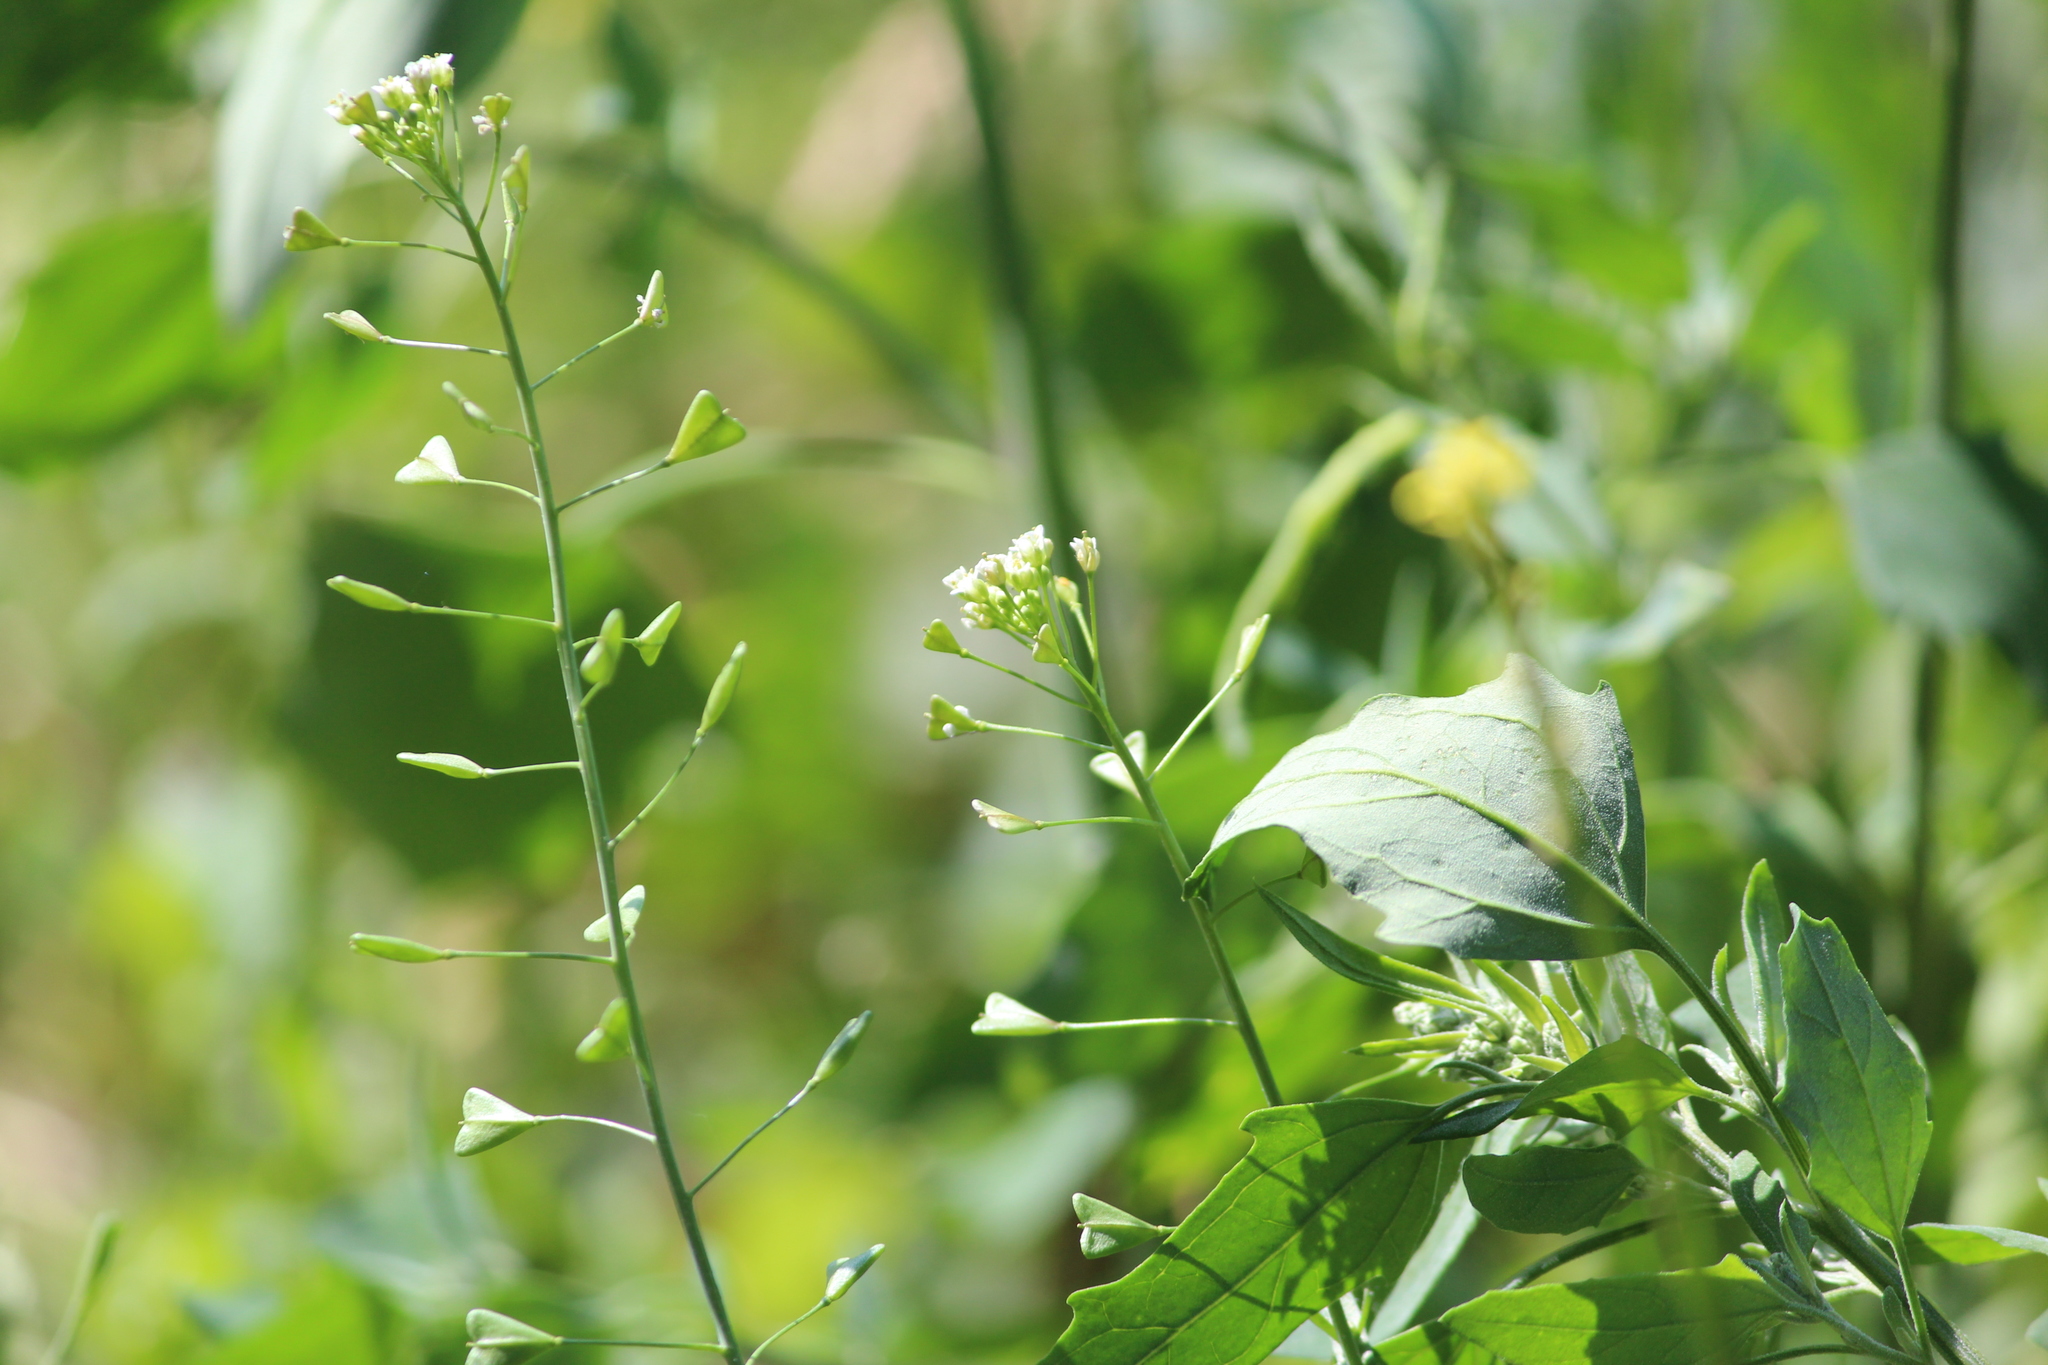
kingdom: Plantae
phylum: Tracheophyta
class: Magnoliopsida
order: Brassicales
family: Brassicaceae
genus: Capsella
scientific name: Capsella bursa-pastoris
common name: Shepherd's purse
